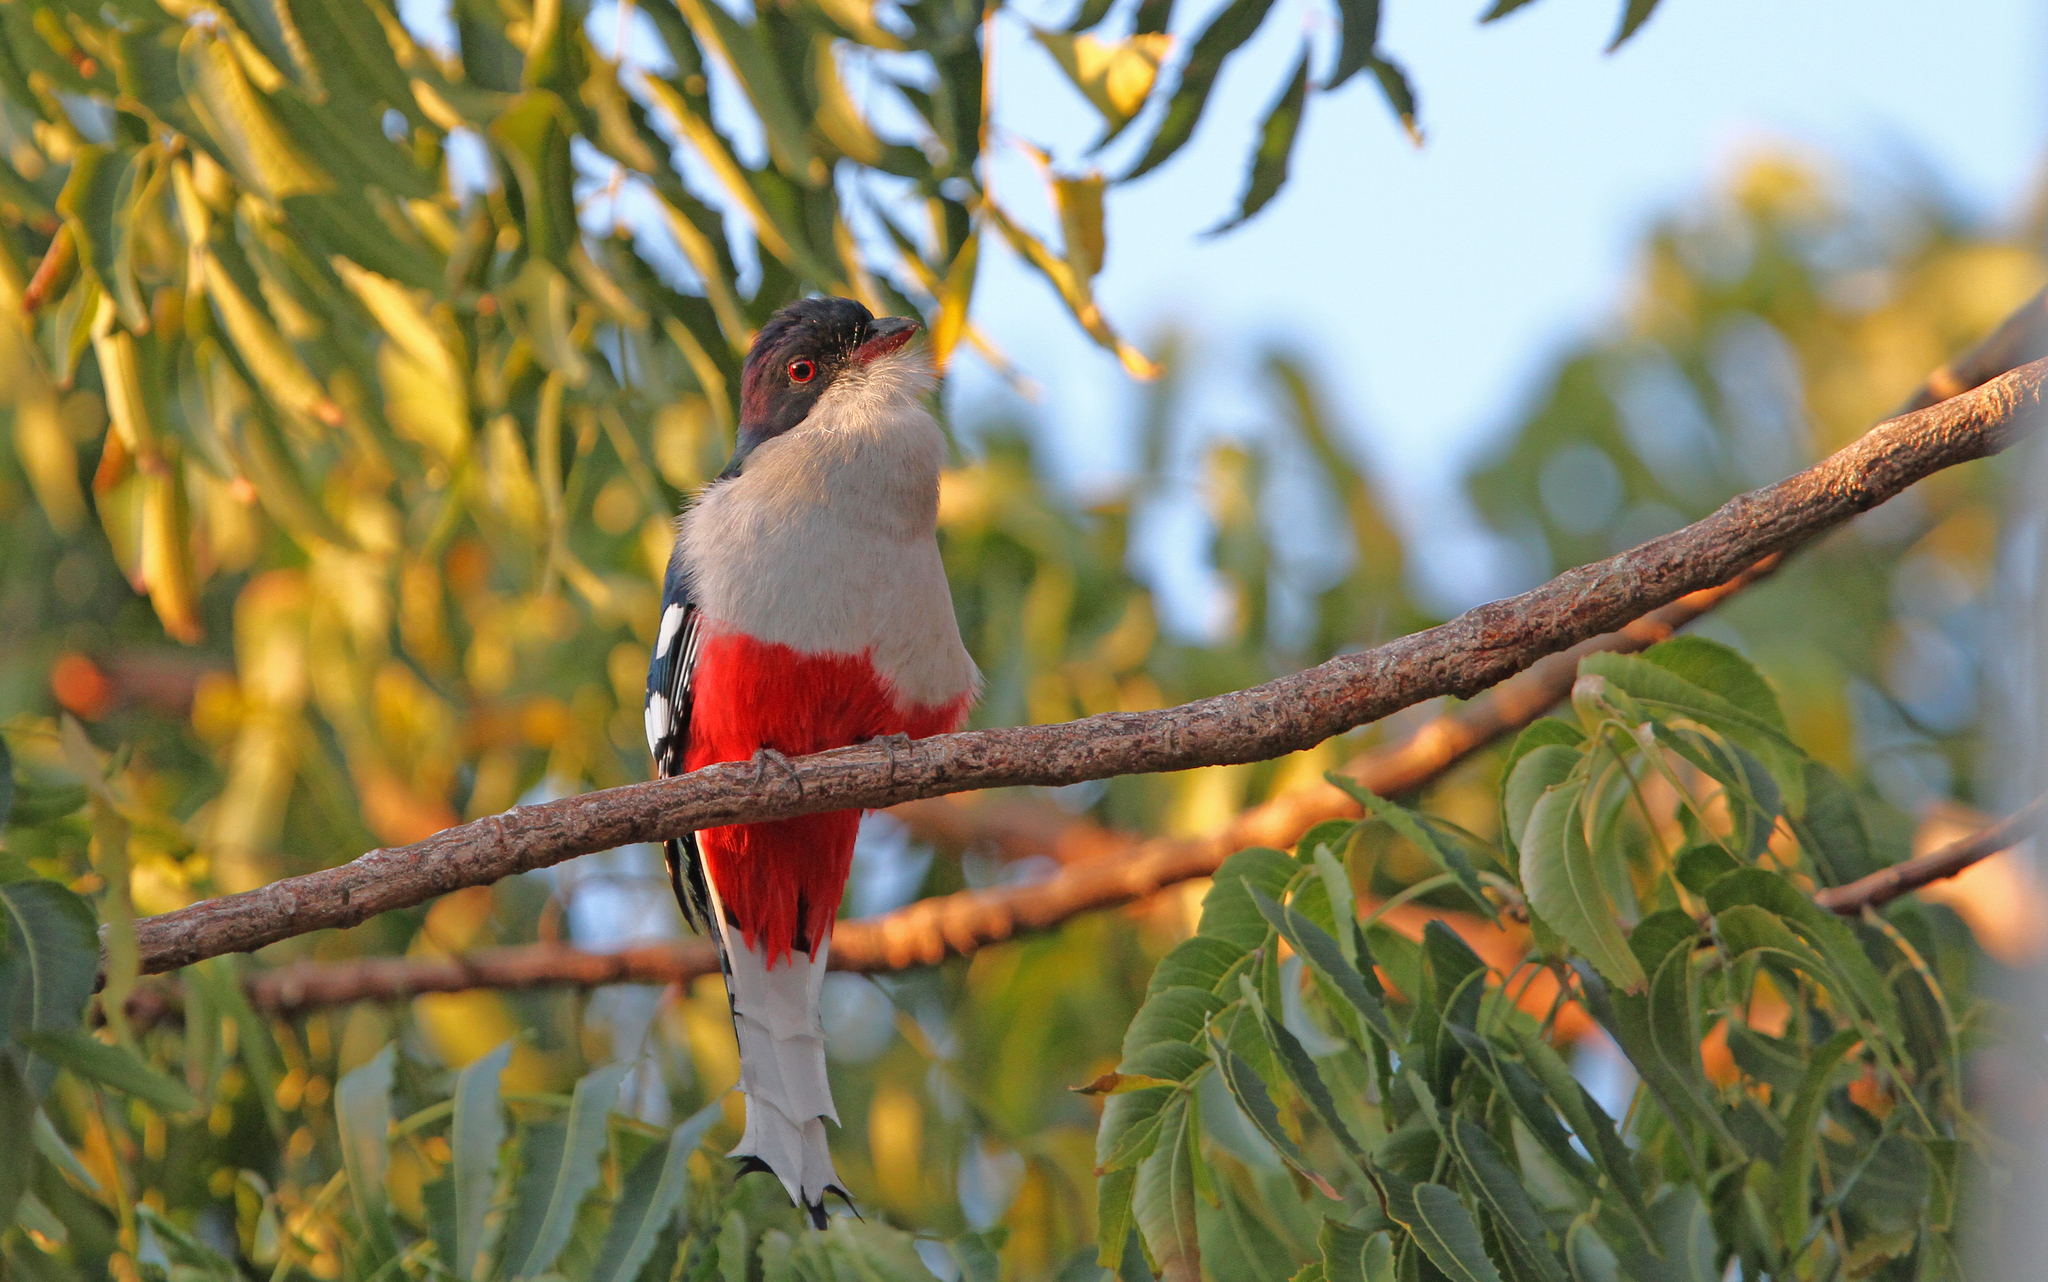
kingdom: Animalia
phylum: Chordata
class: Aves
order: Trogoniformes
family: Trogonidae
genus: Priotelus
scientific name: Priotelus temnurus
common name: Cuban trogon
